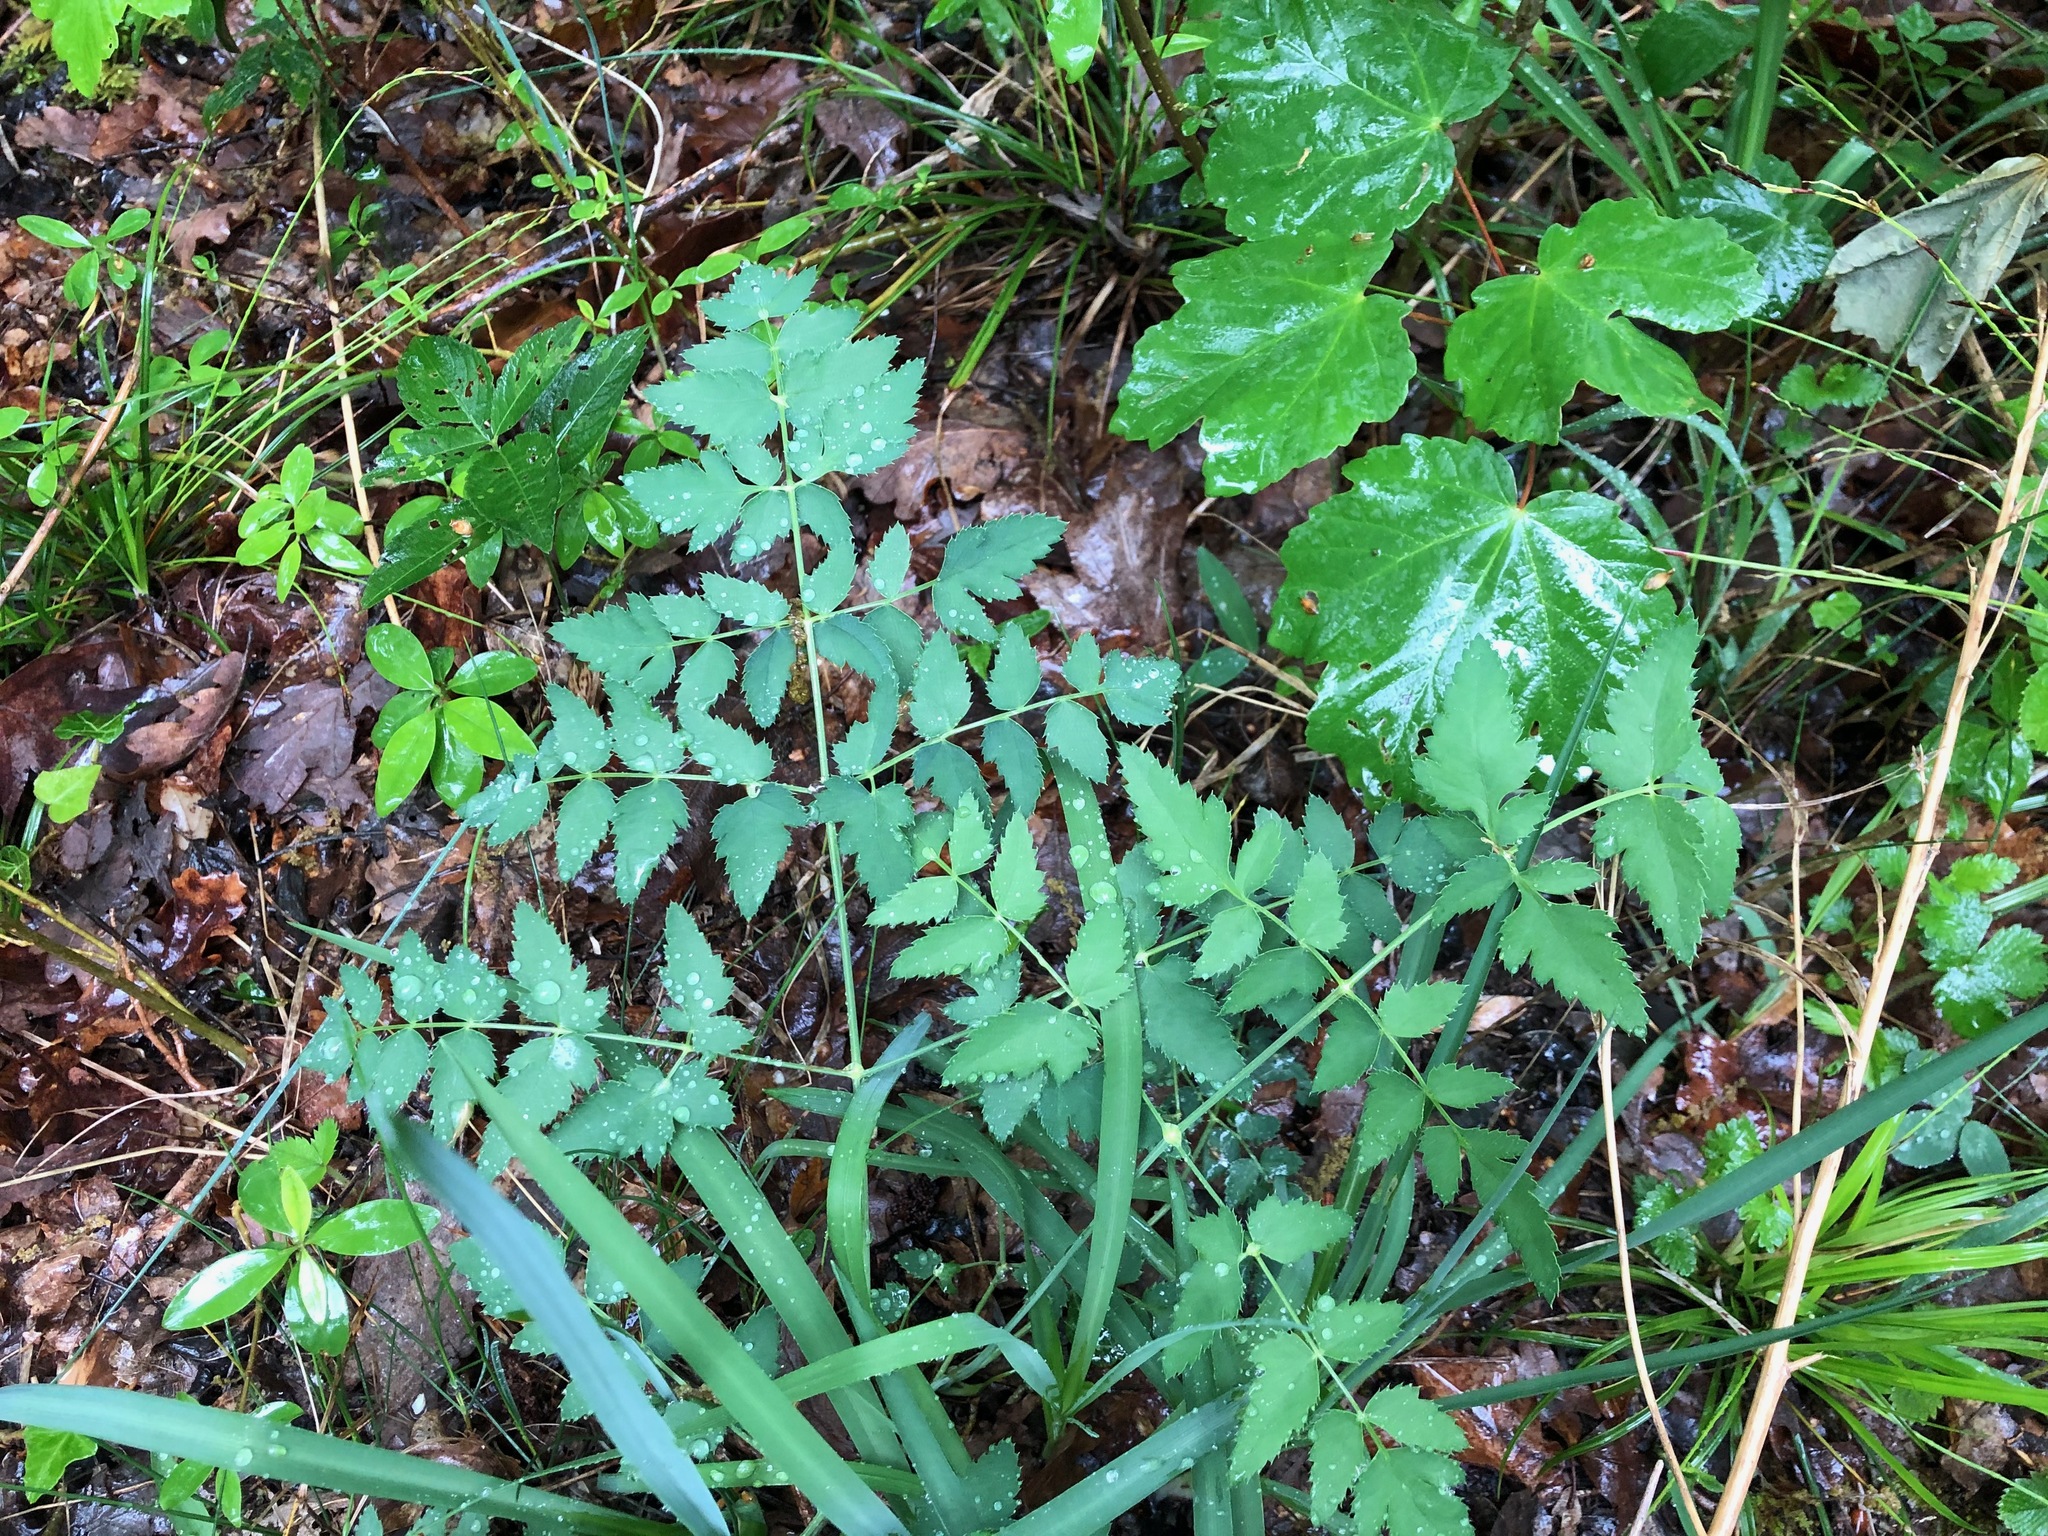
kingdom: Plantae
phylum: Tracheophyta
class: Magnoliopsida
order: Apiales
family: Apiaceae
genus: Cervaria
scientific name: Cervaria rivini
